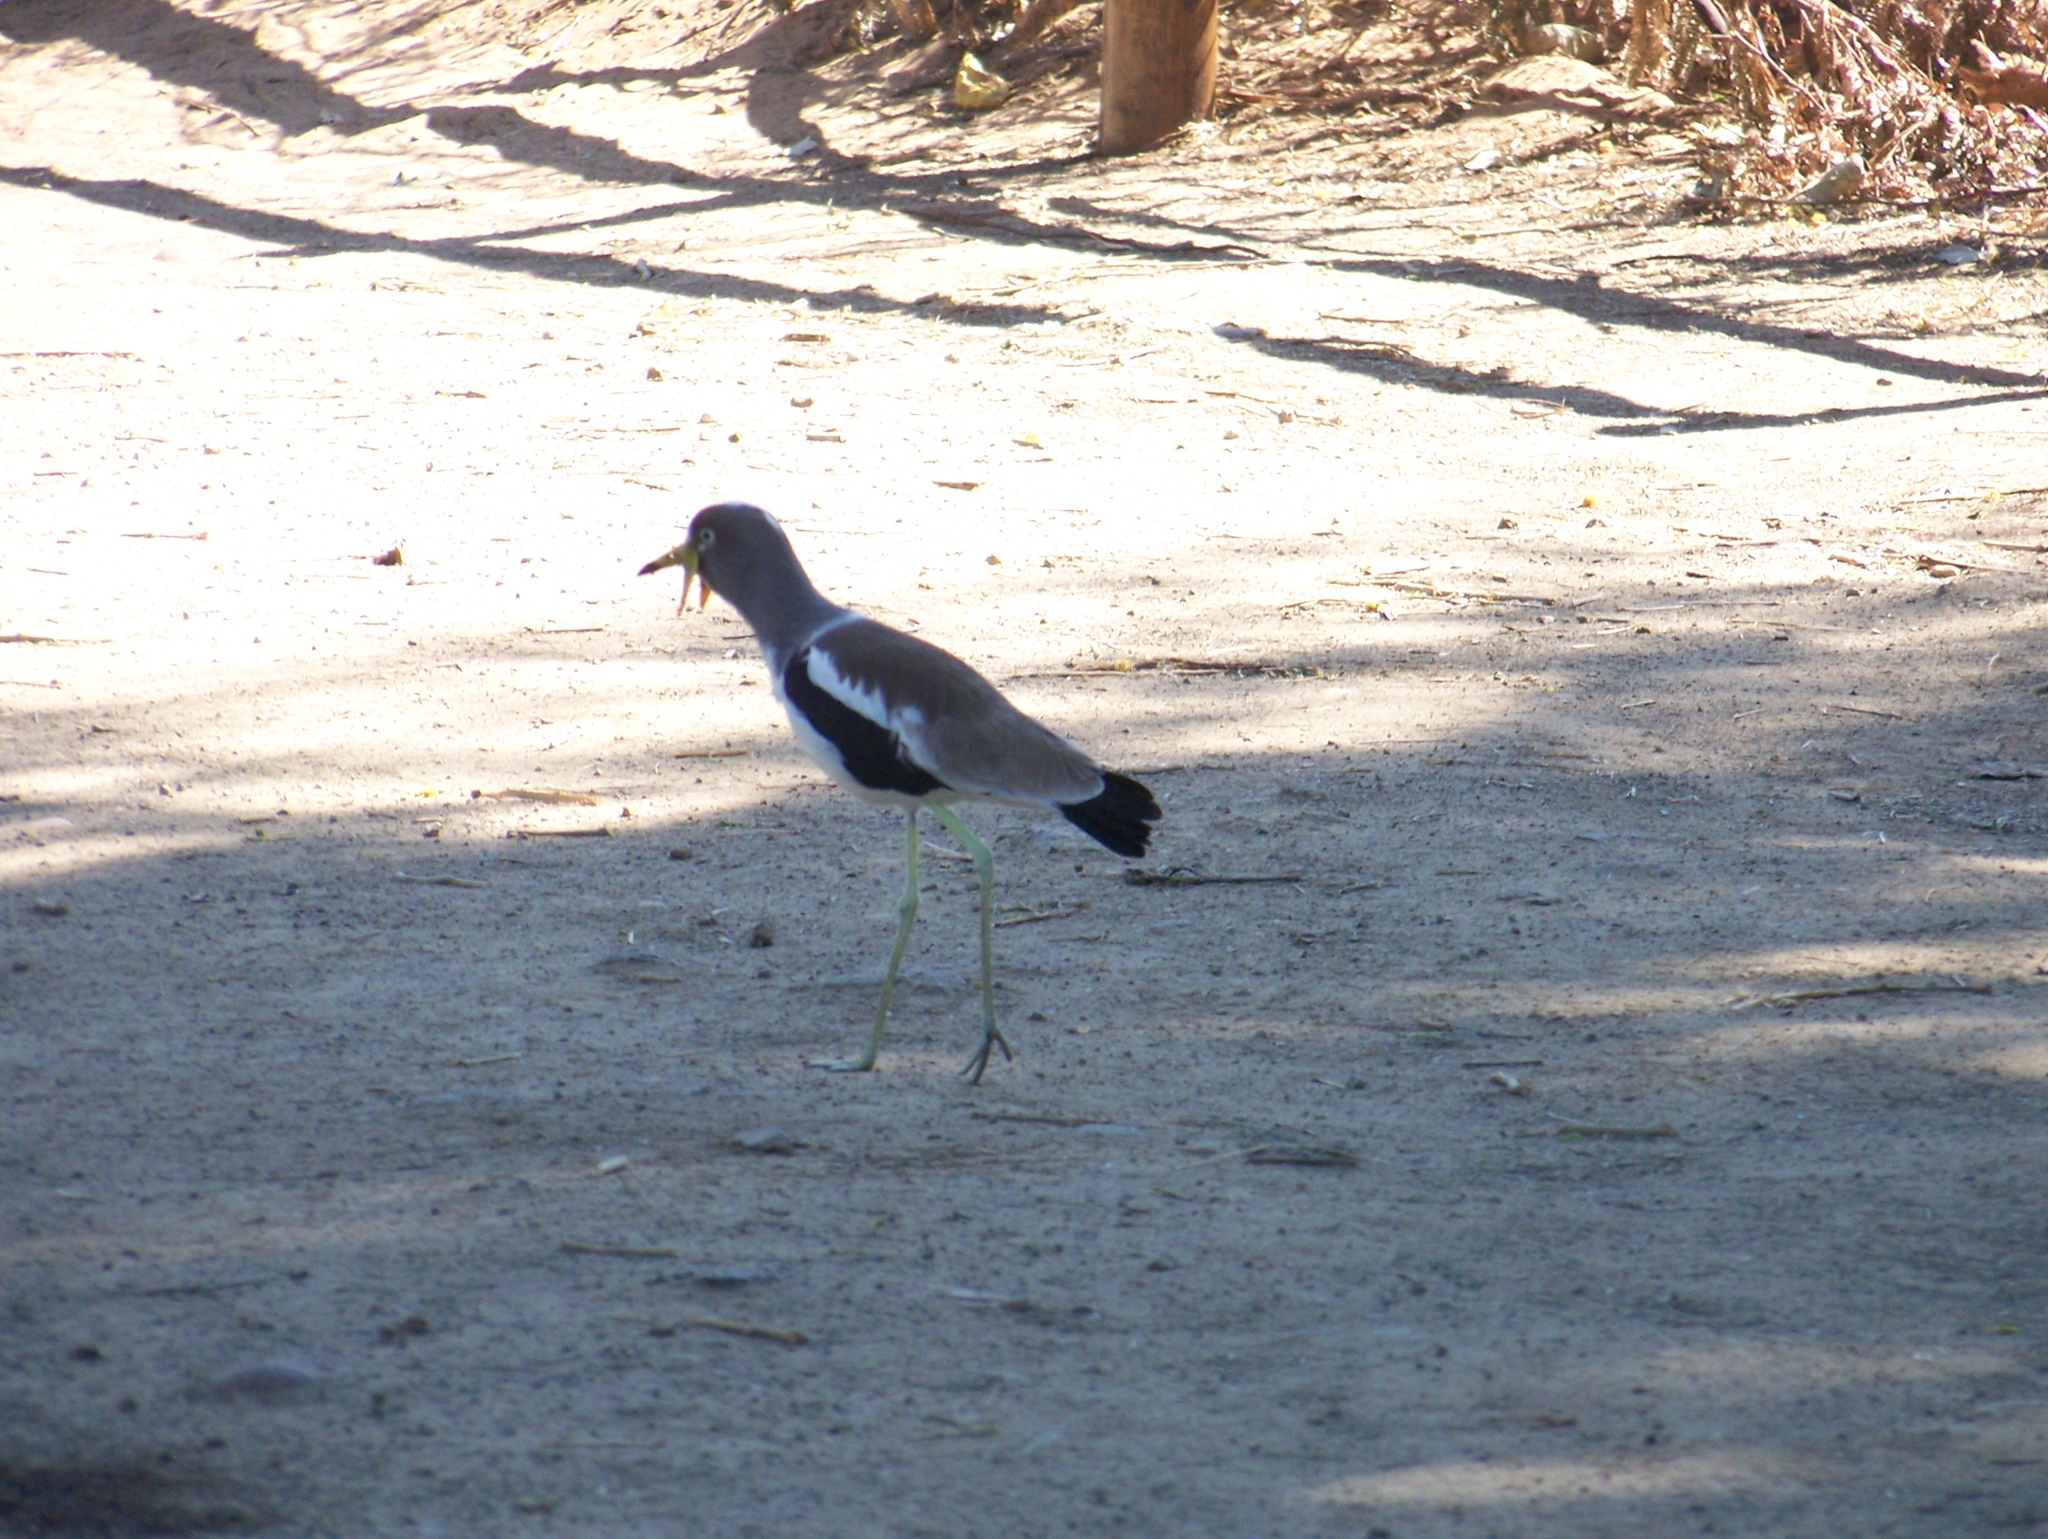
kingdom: Animalia
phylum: Chordata
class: Aves
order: Charadriiformes
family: Charadriidae
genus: Vanellus
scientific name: Vanellus albiceps
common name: White-crowned lapwing
